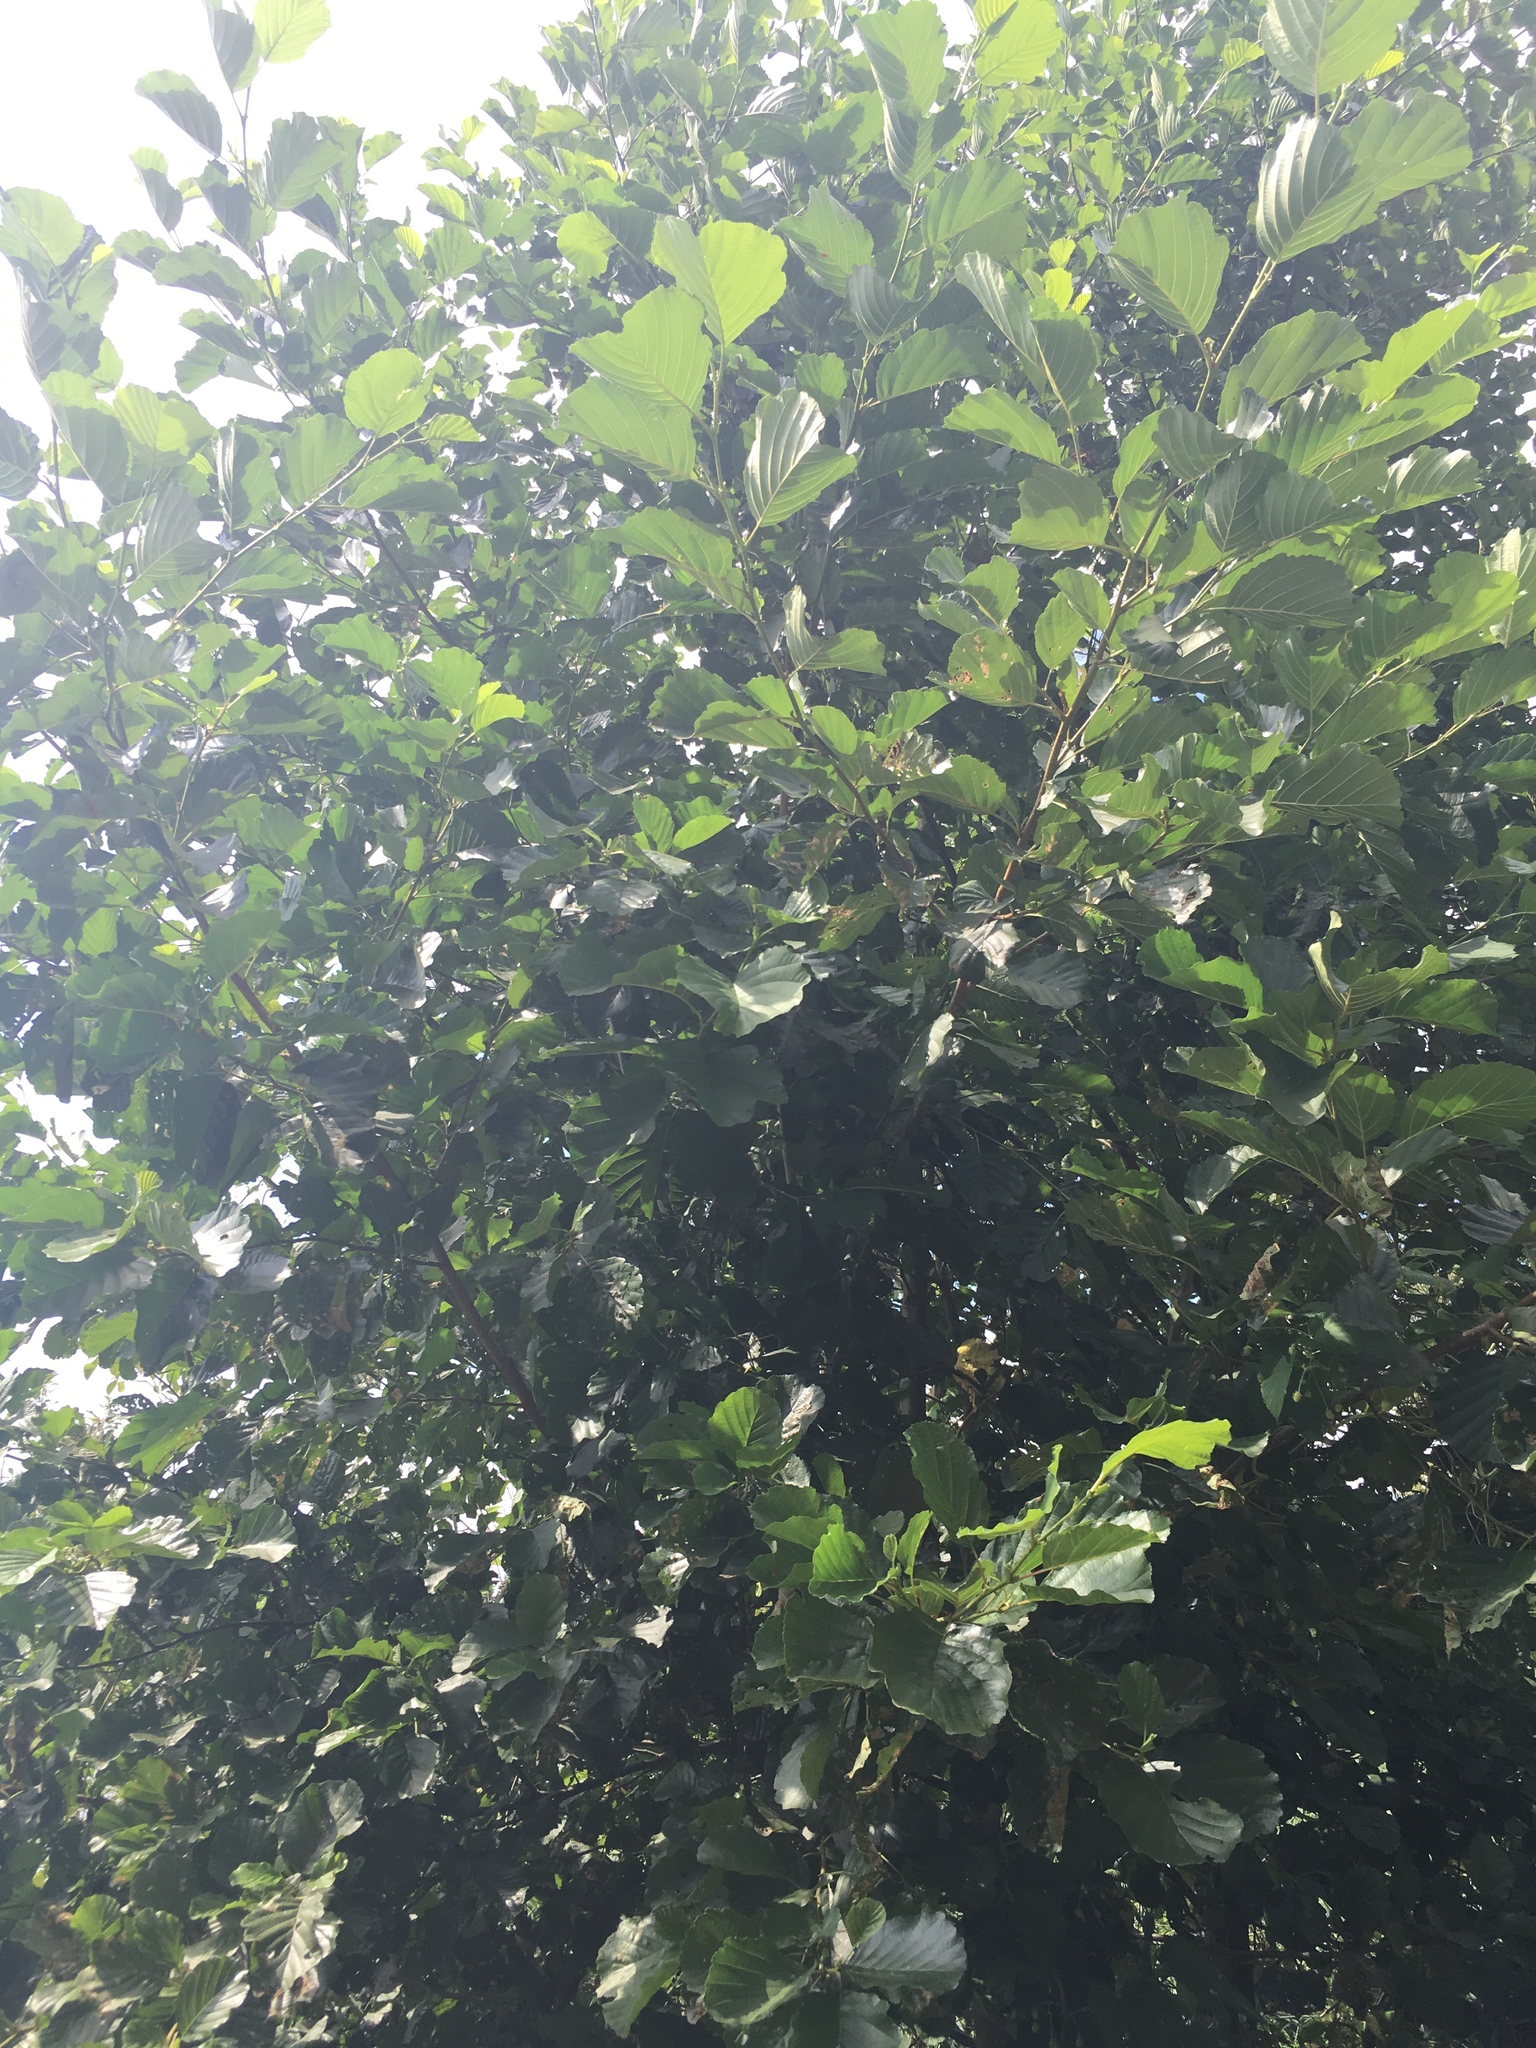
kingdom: Plantae
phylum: Tracheophyta
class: Magnoliopsida
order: Fagales
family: Betulaceae
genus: Alnus
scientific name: Alnus glutinosa
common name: Black alder
